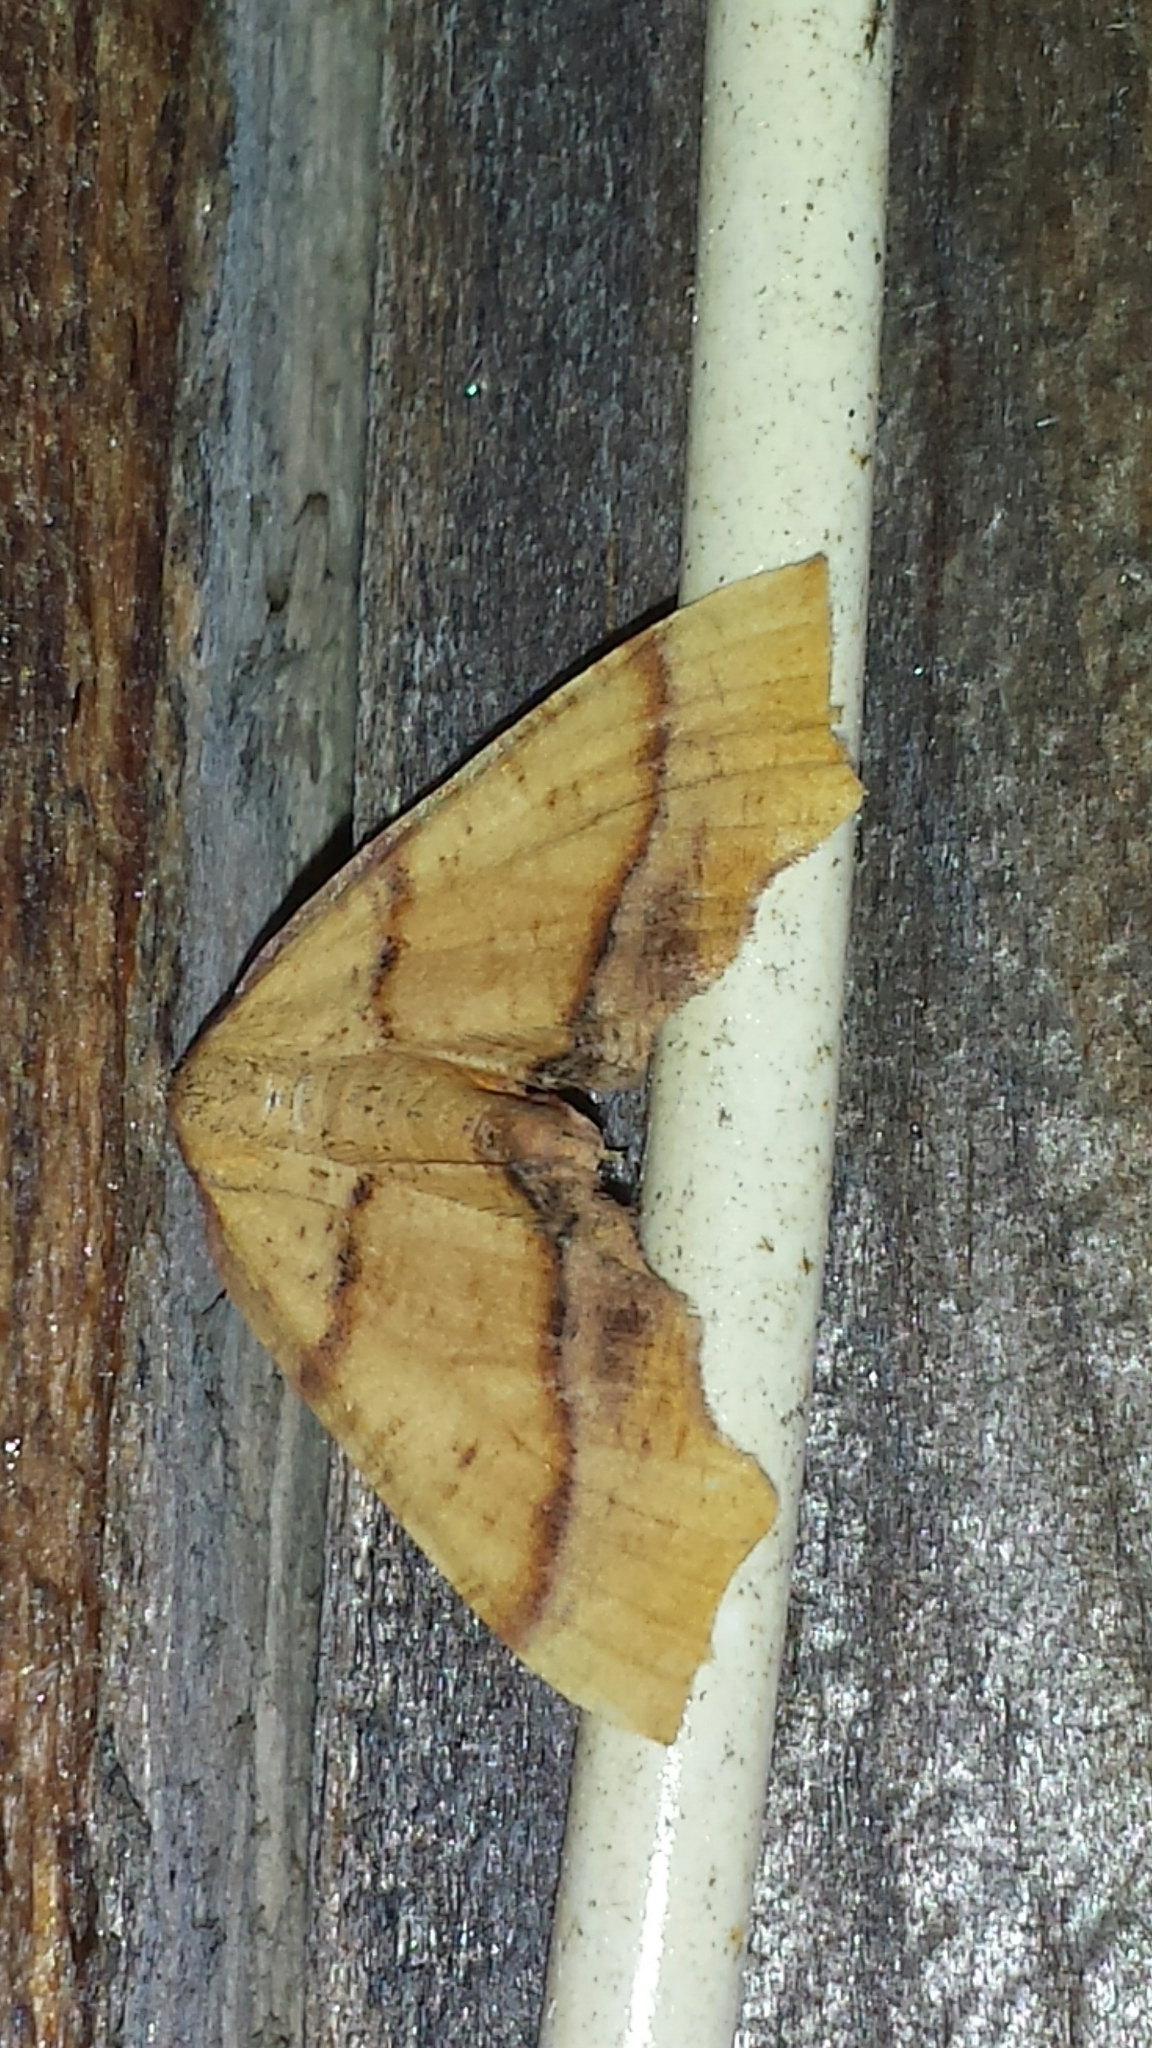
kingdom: Animalia
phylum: Arthropoda
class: Insecta
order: Lepidoptera
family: Geometridae
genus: Plagodis
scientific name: Plagodis phlogosaria
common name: Straight-lined plagodis
